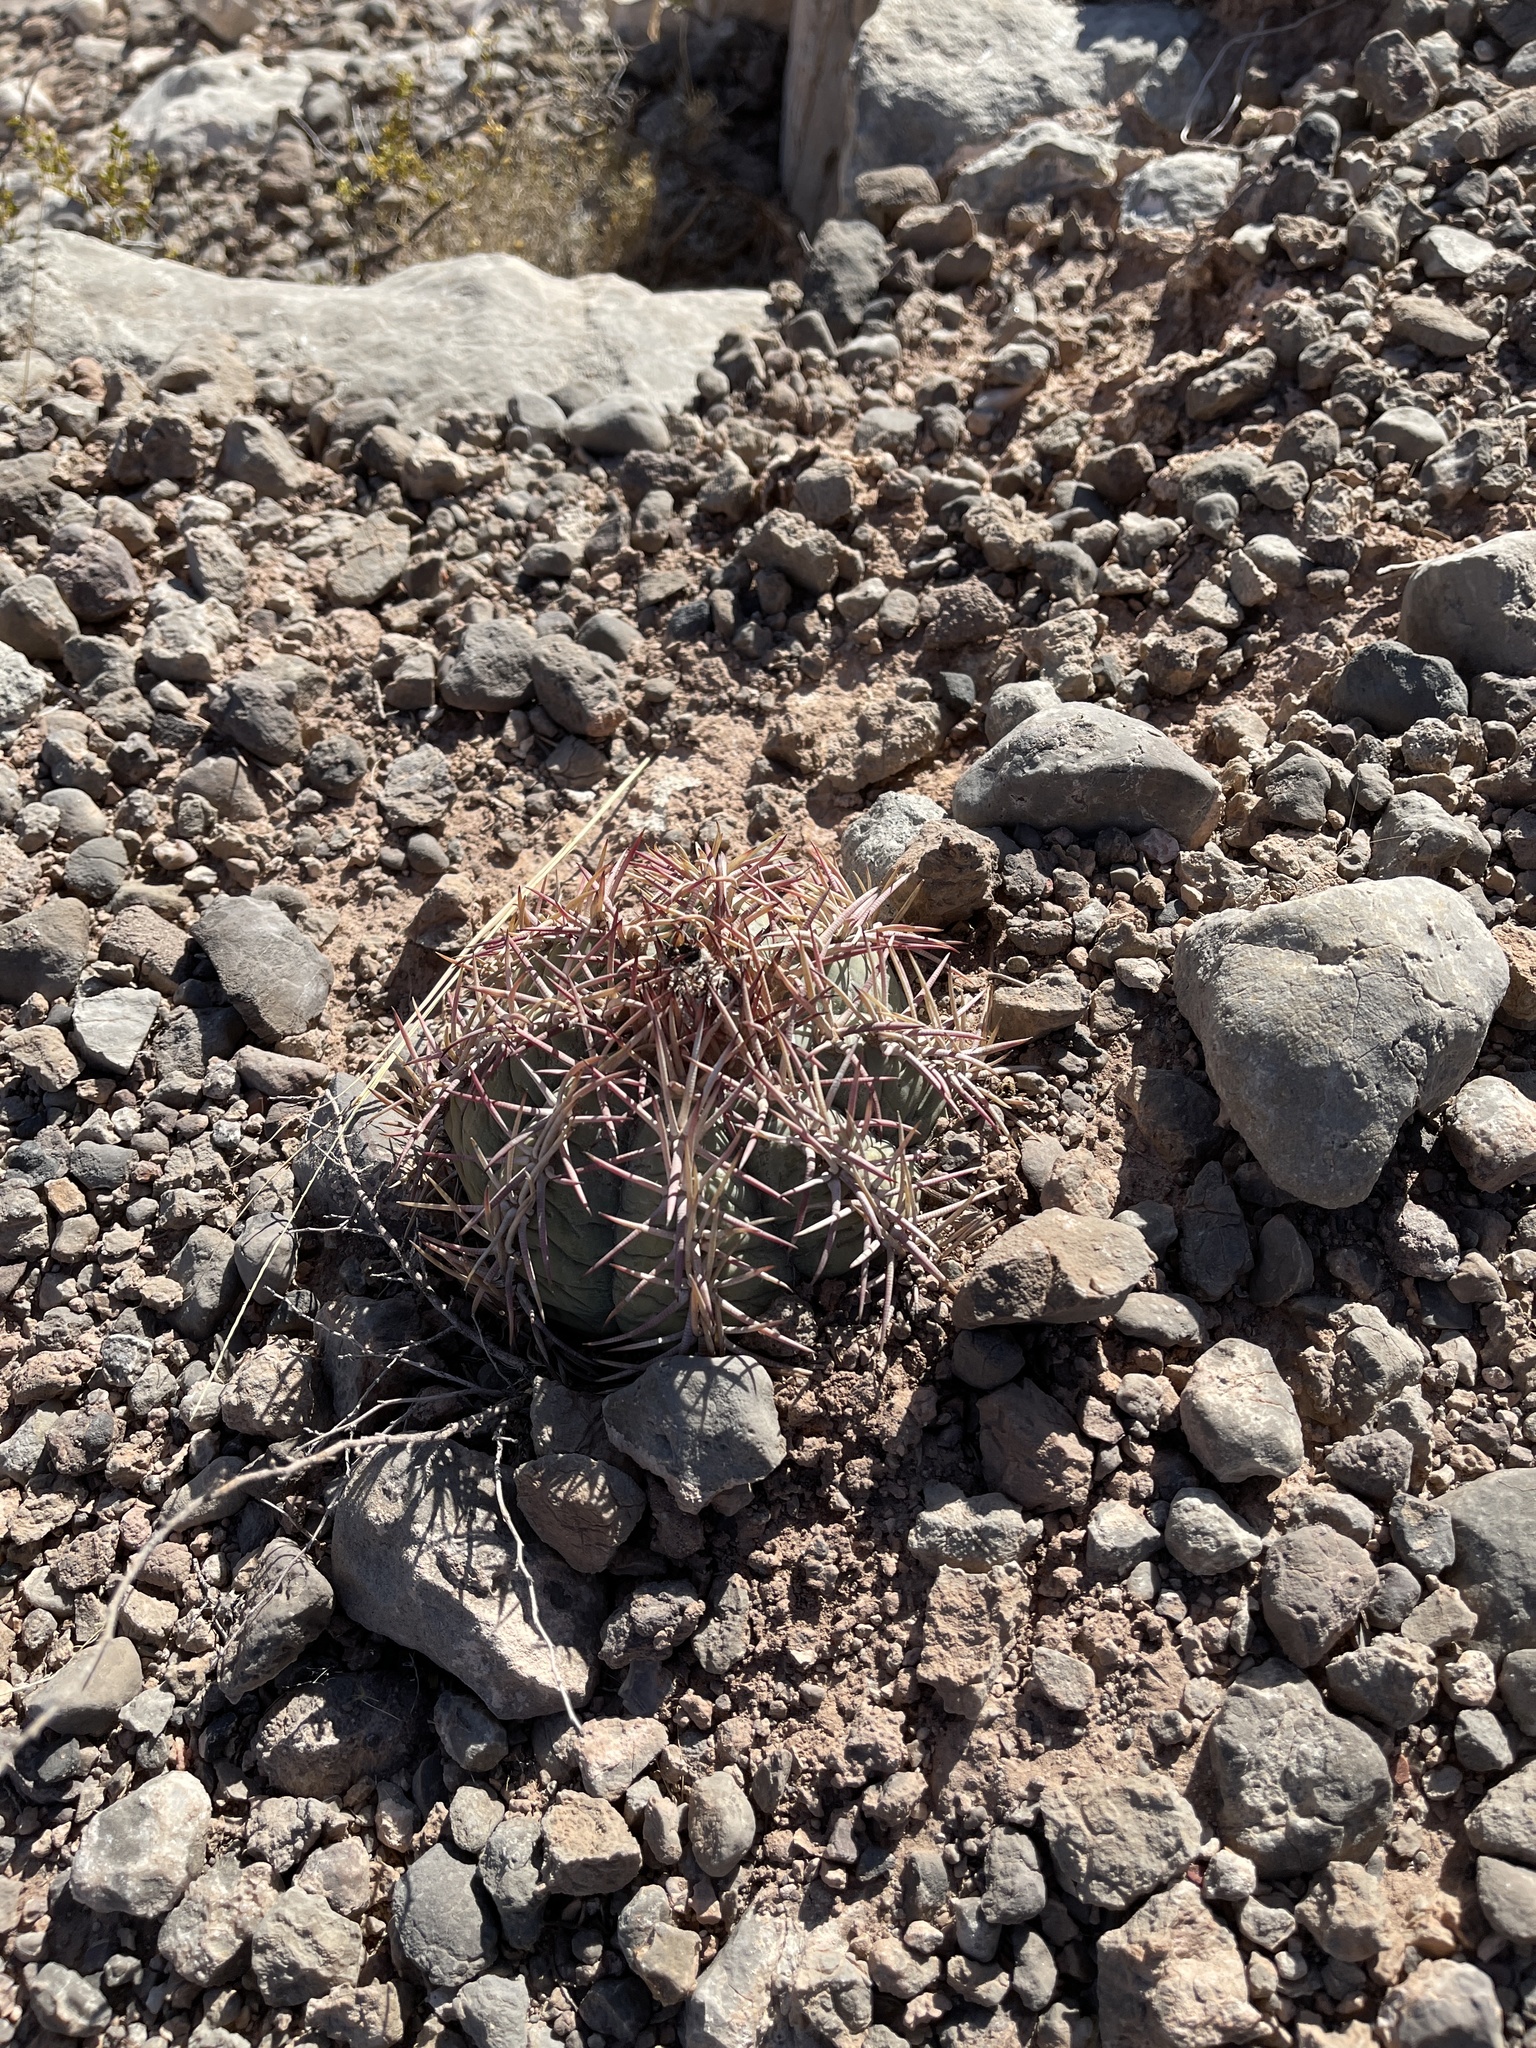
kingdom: Plantae
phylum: Tracheophyta
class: Magnoliopsida
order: Caryophyllales
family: Cactaceae
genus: Echinocactus
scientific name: Echinocactus horizonthalonius
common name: Devilshead
